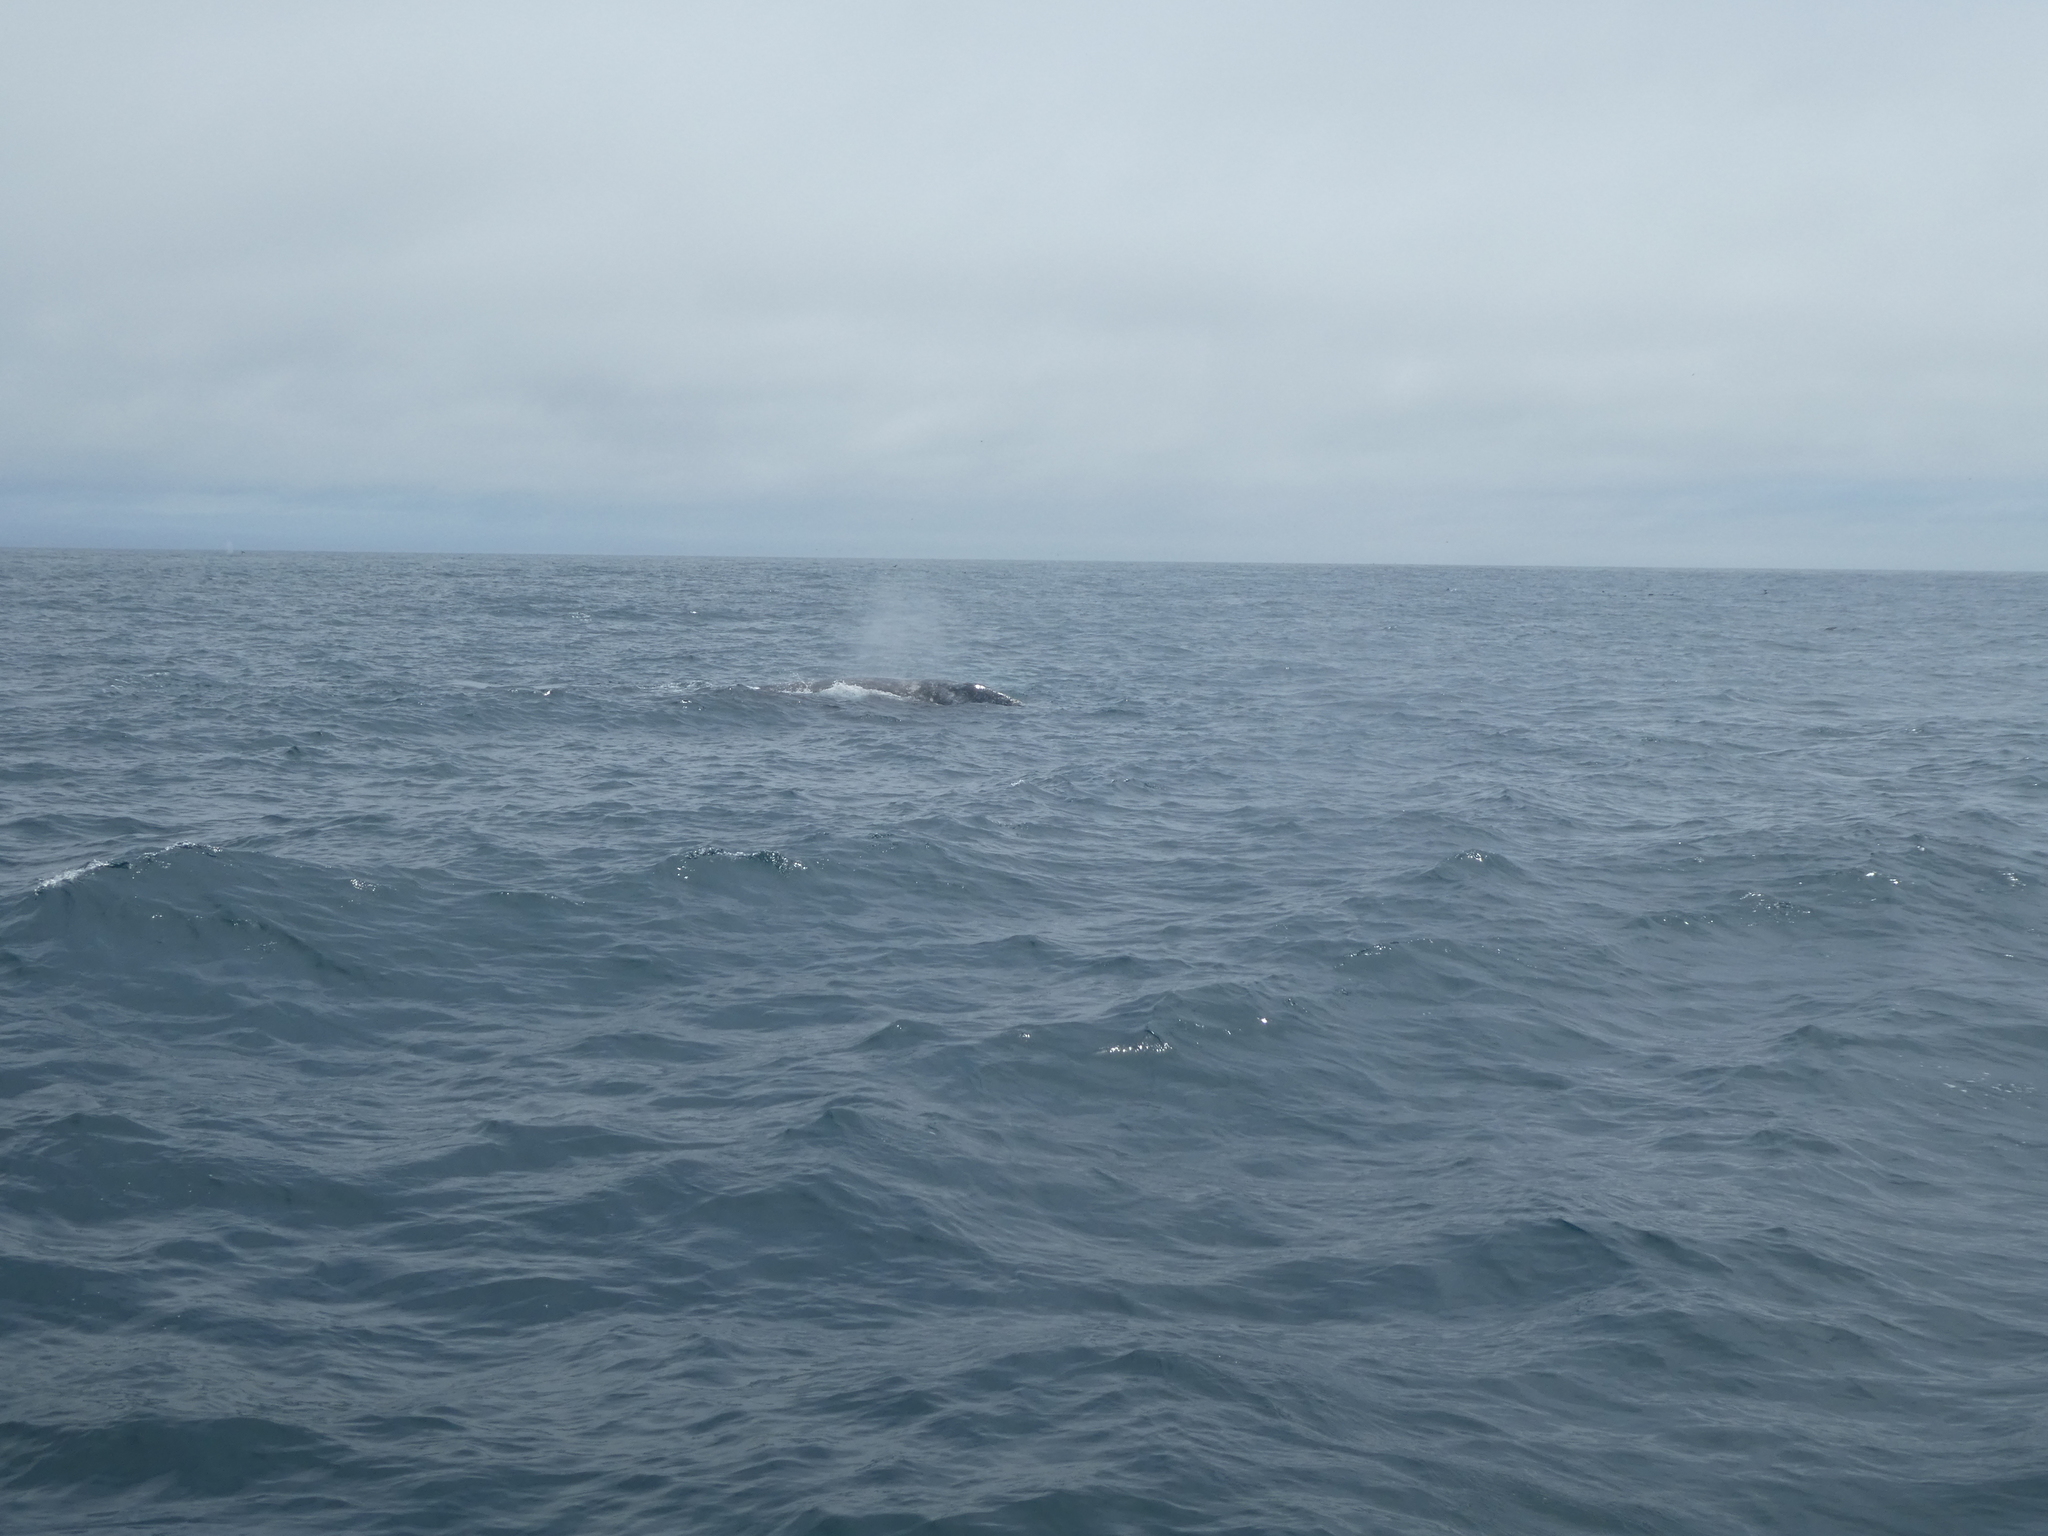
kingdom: Animalia
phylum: Chordata
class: Mammalia
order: Cetacea
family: Eschrichtiidae
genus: Eschrichtius
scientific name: Eschrichtius robustus
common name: Gray whale
